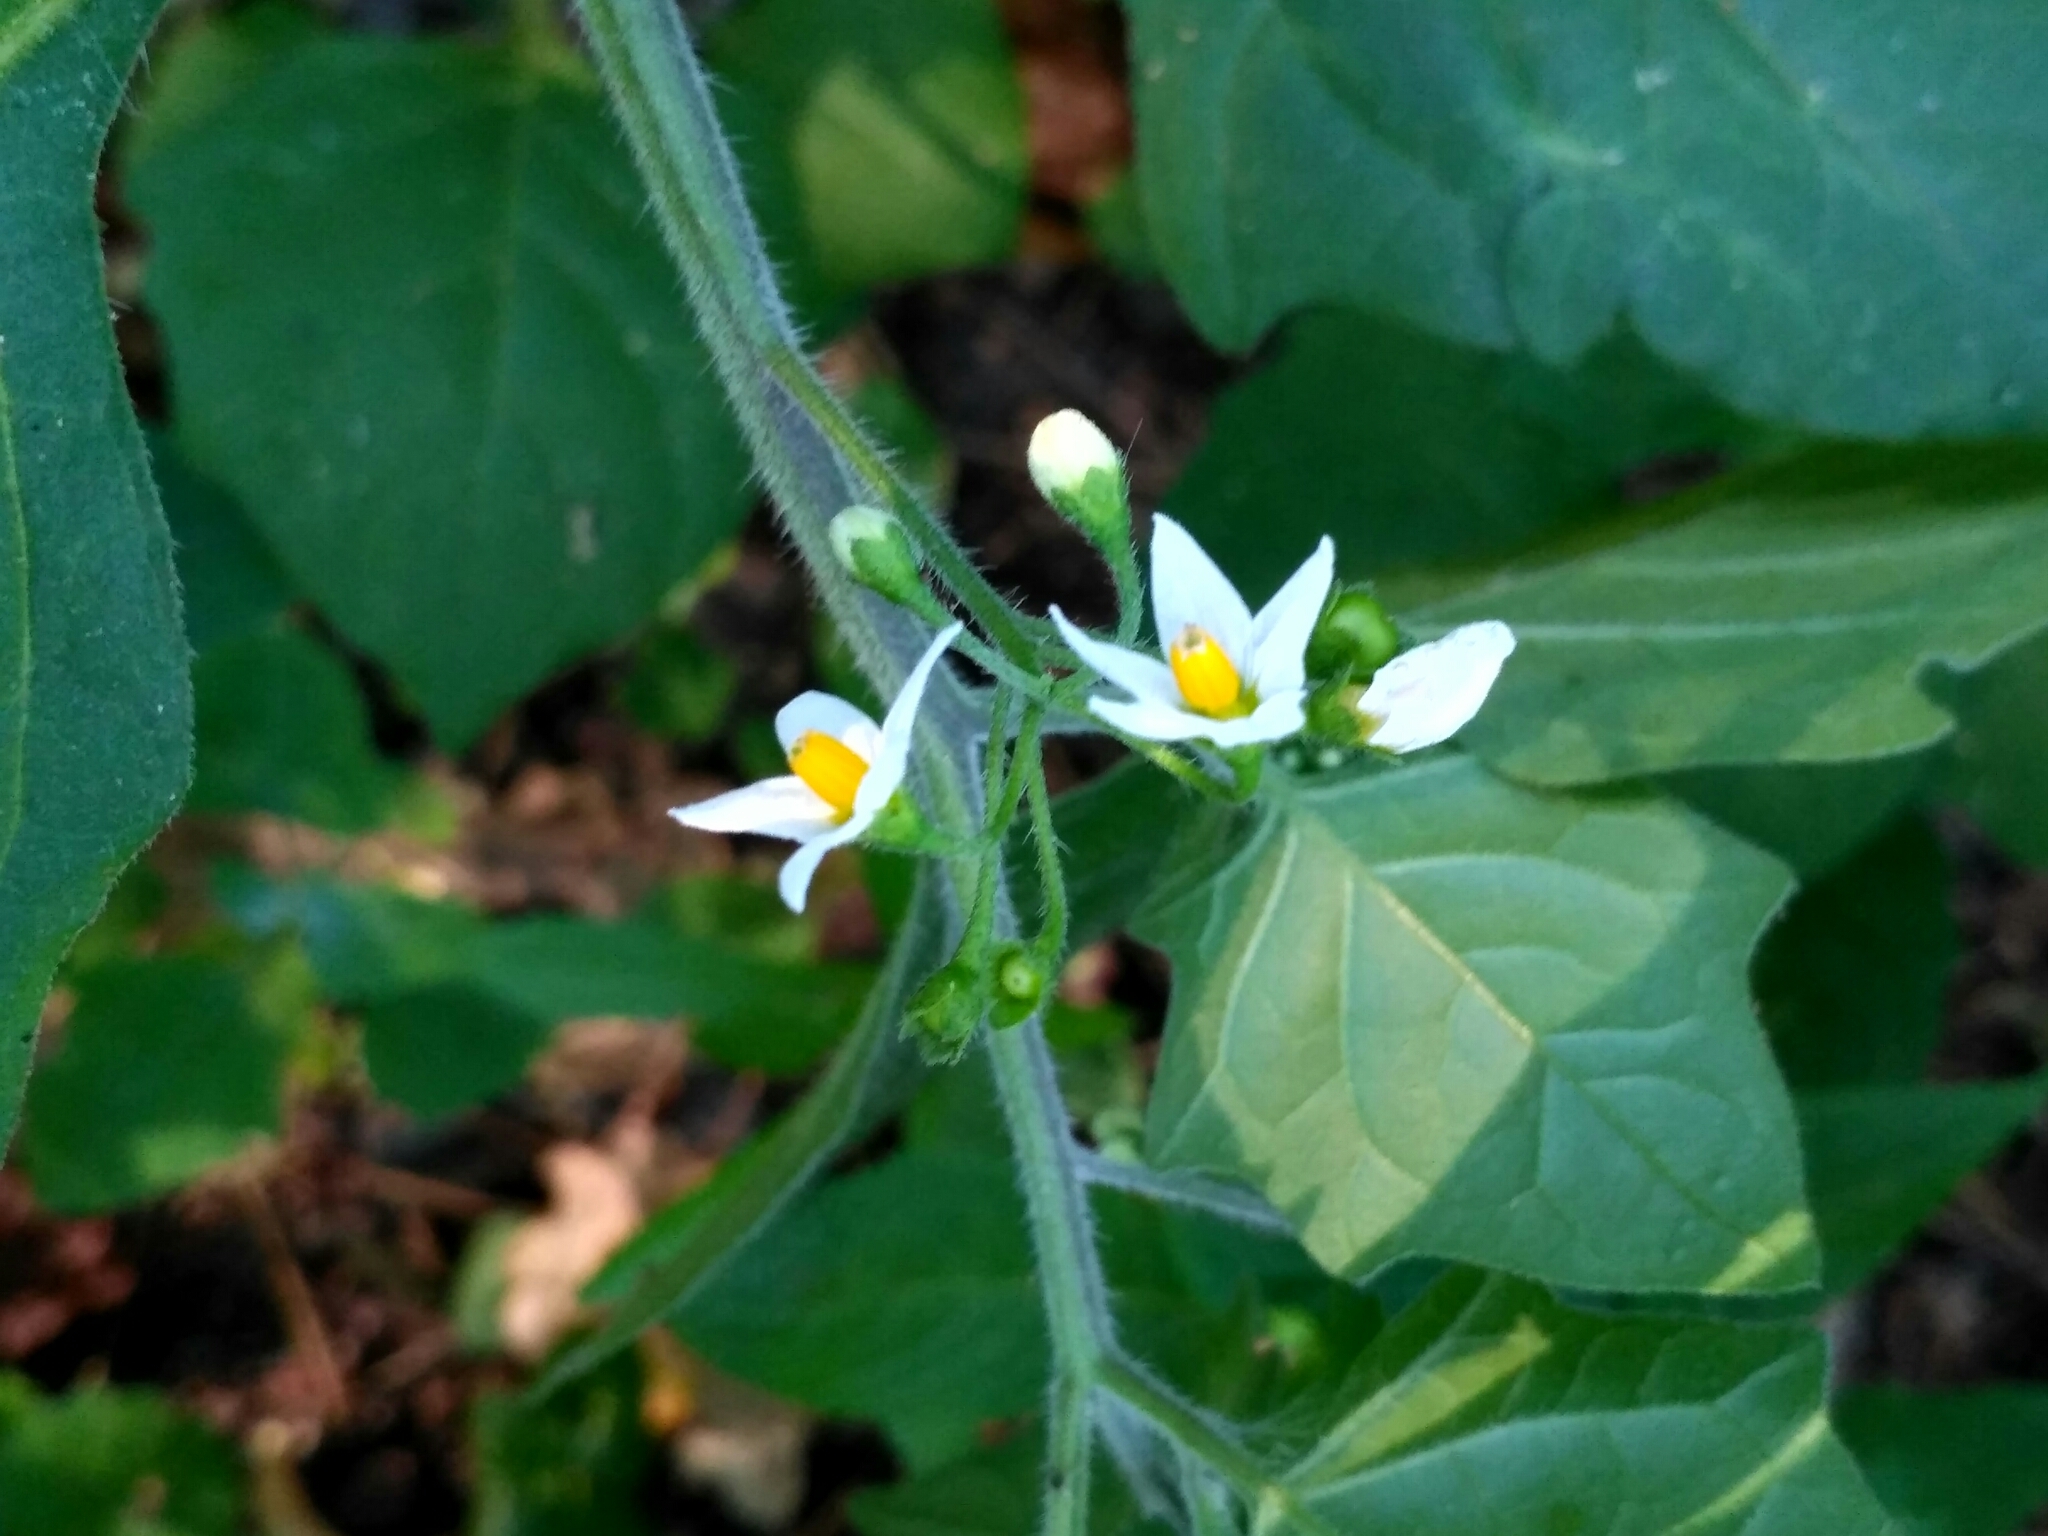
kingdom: Plantae
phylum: Tracheophyta
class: Magnoliopsida
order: Solanales
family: Solanaceae
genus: Solanum
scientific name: Solanum nigrum
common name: Black nightshade
